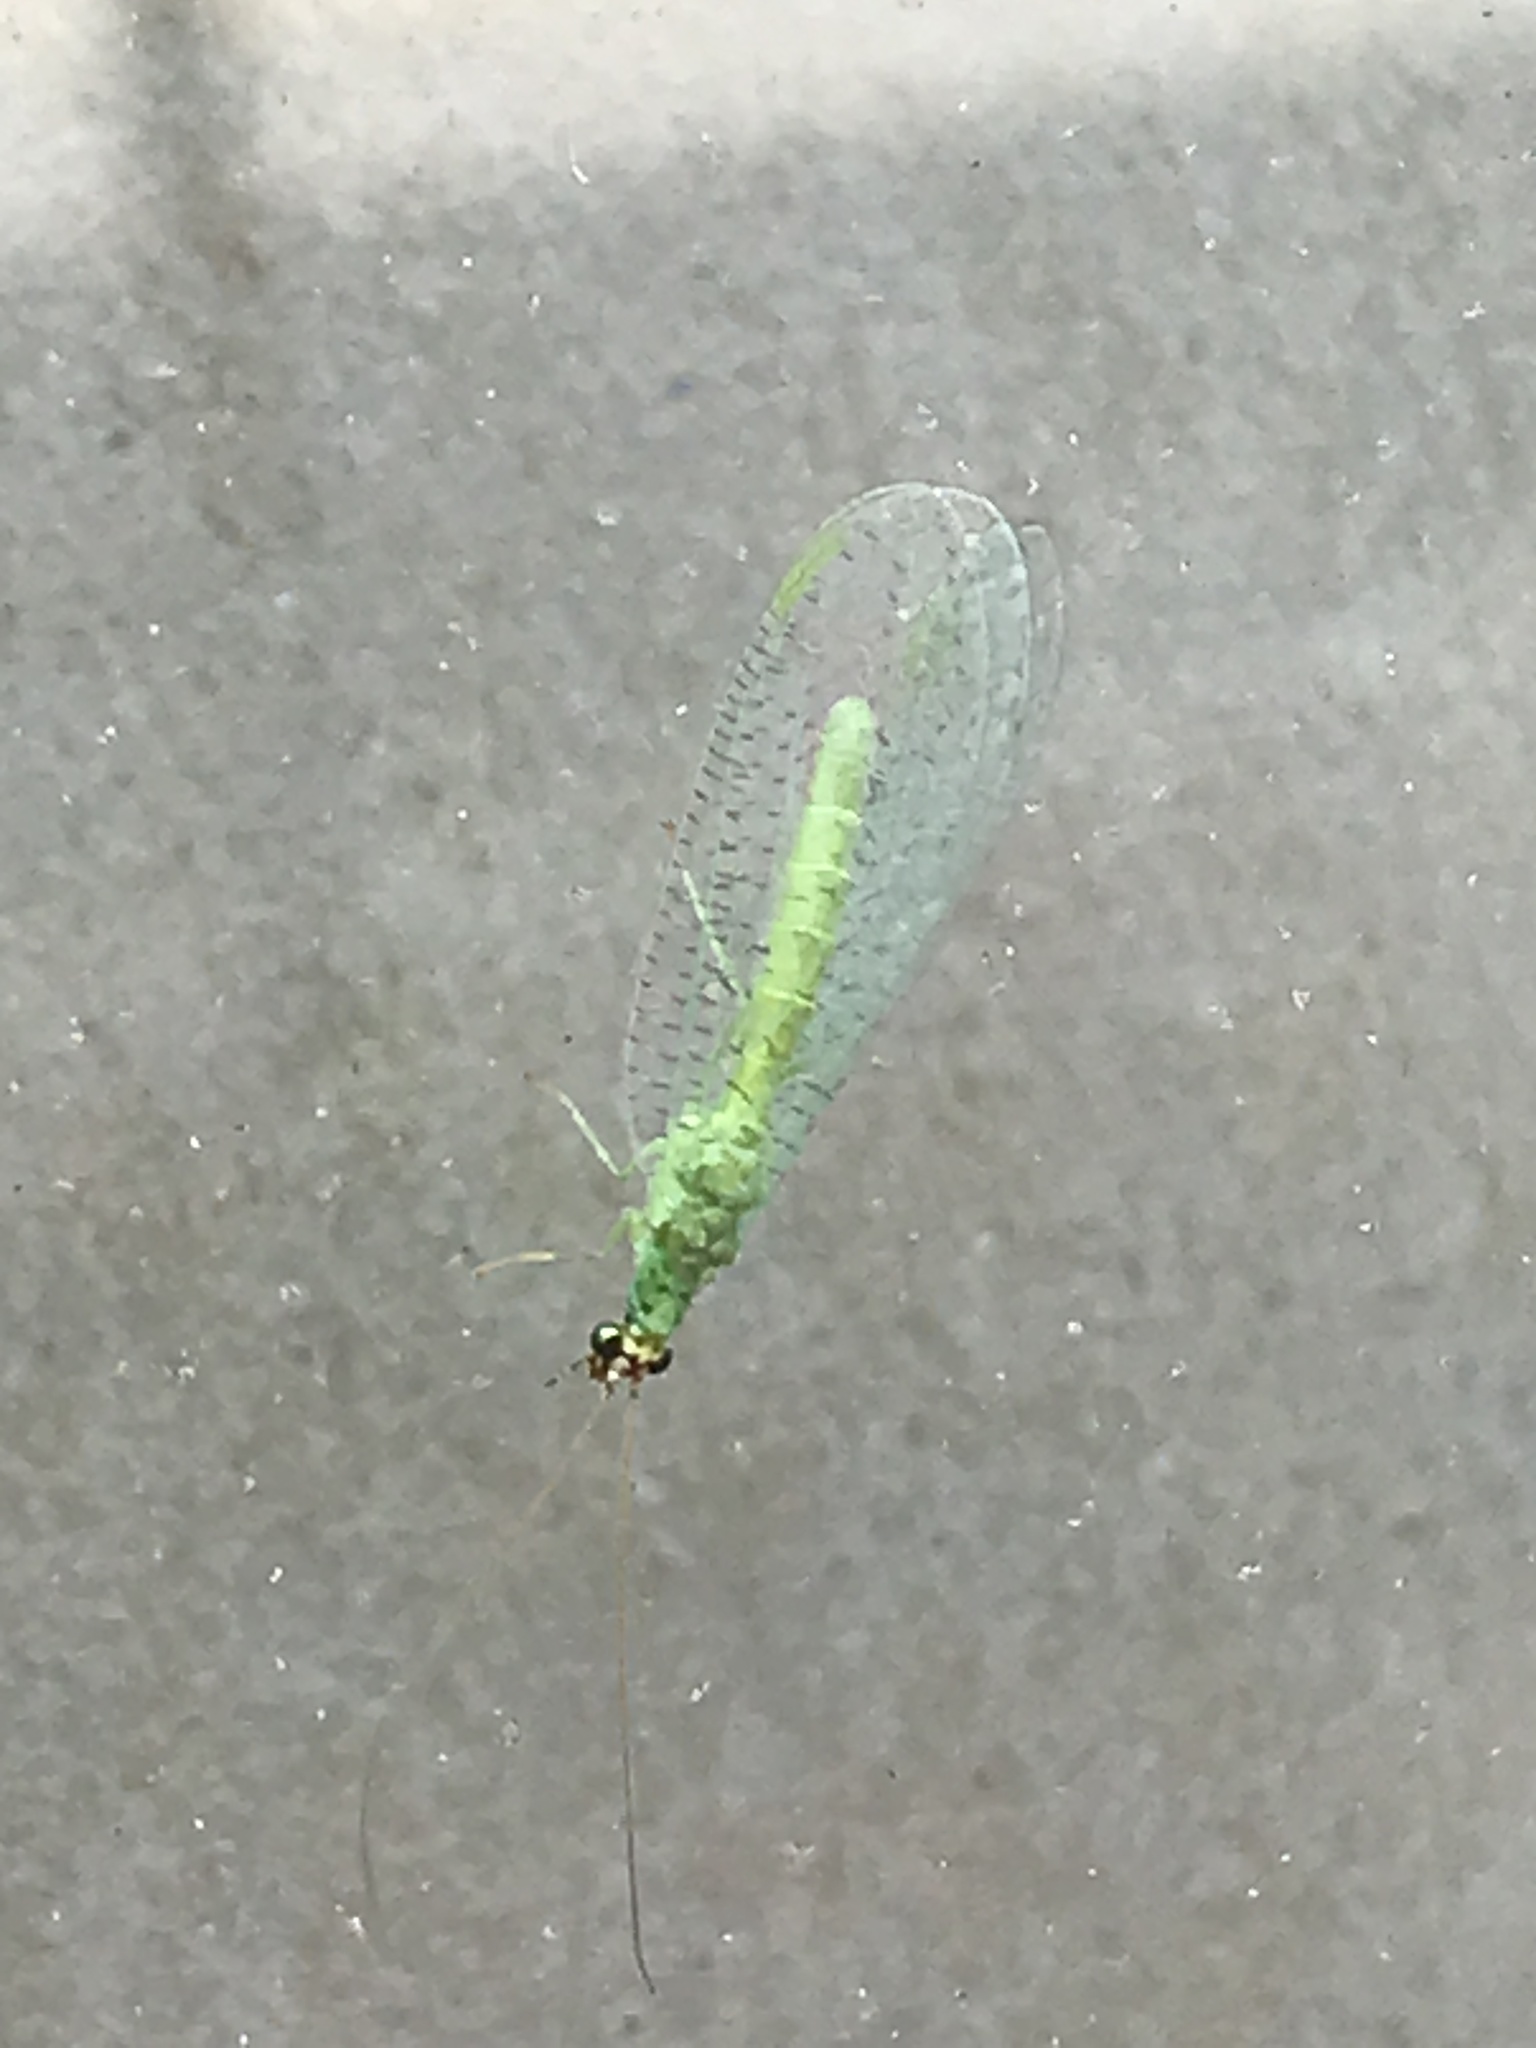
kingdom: Animalia
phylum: Arthropoda
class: Insecta
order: Neuroptera
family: Chrysopidae
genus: Chrysopa
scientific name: Chrysopa oculata
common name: Golden-eyed lacewing
